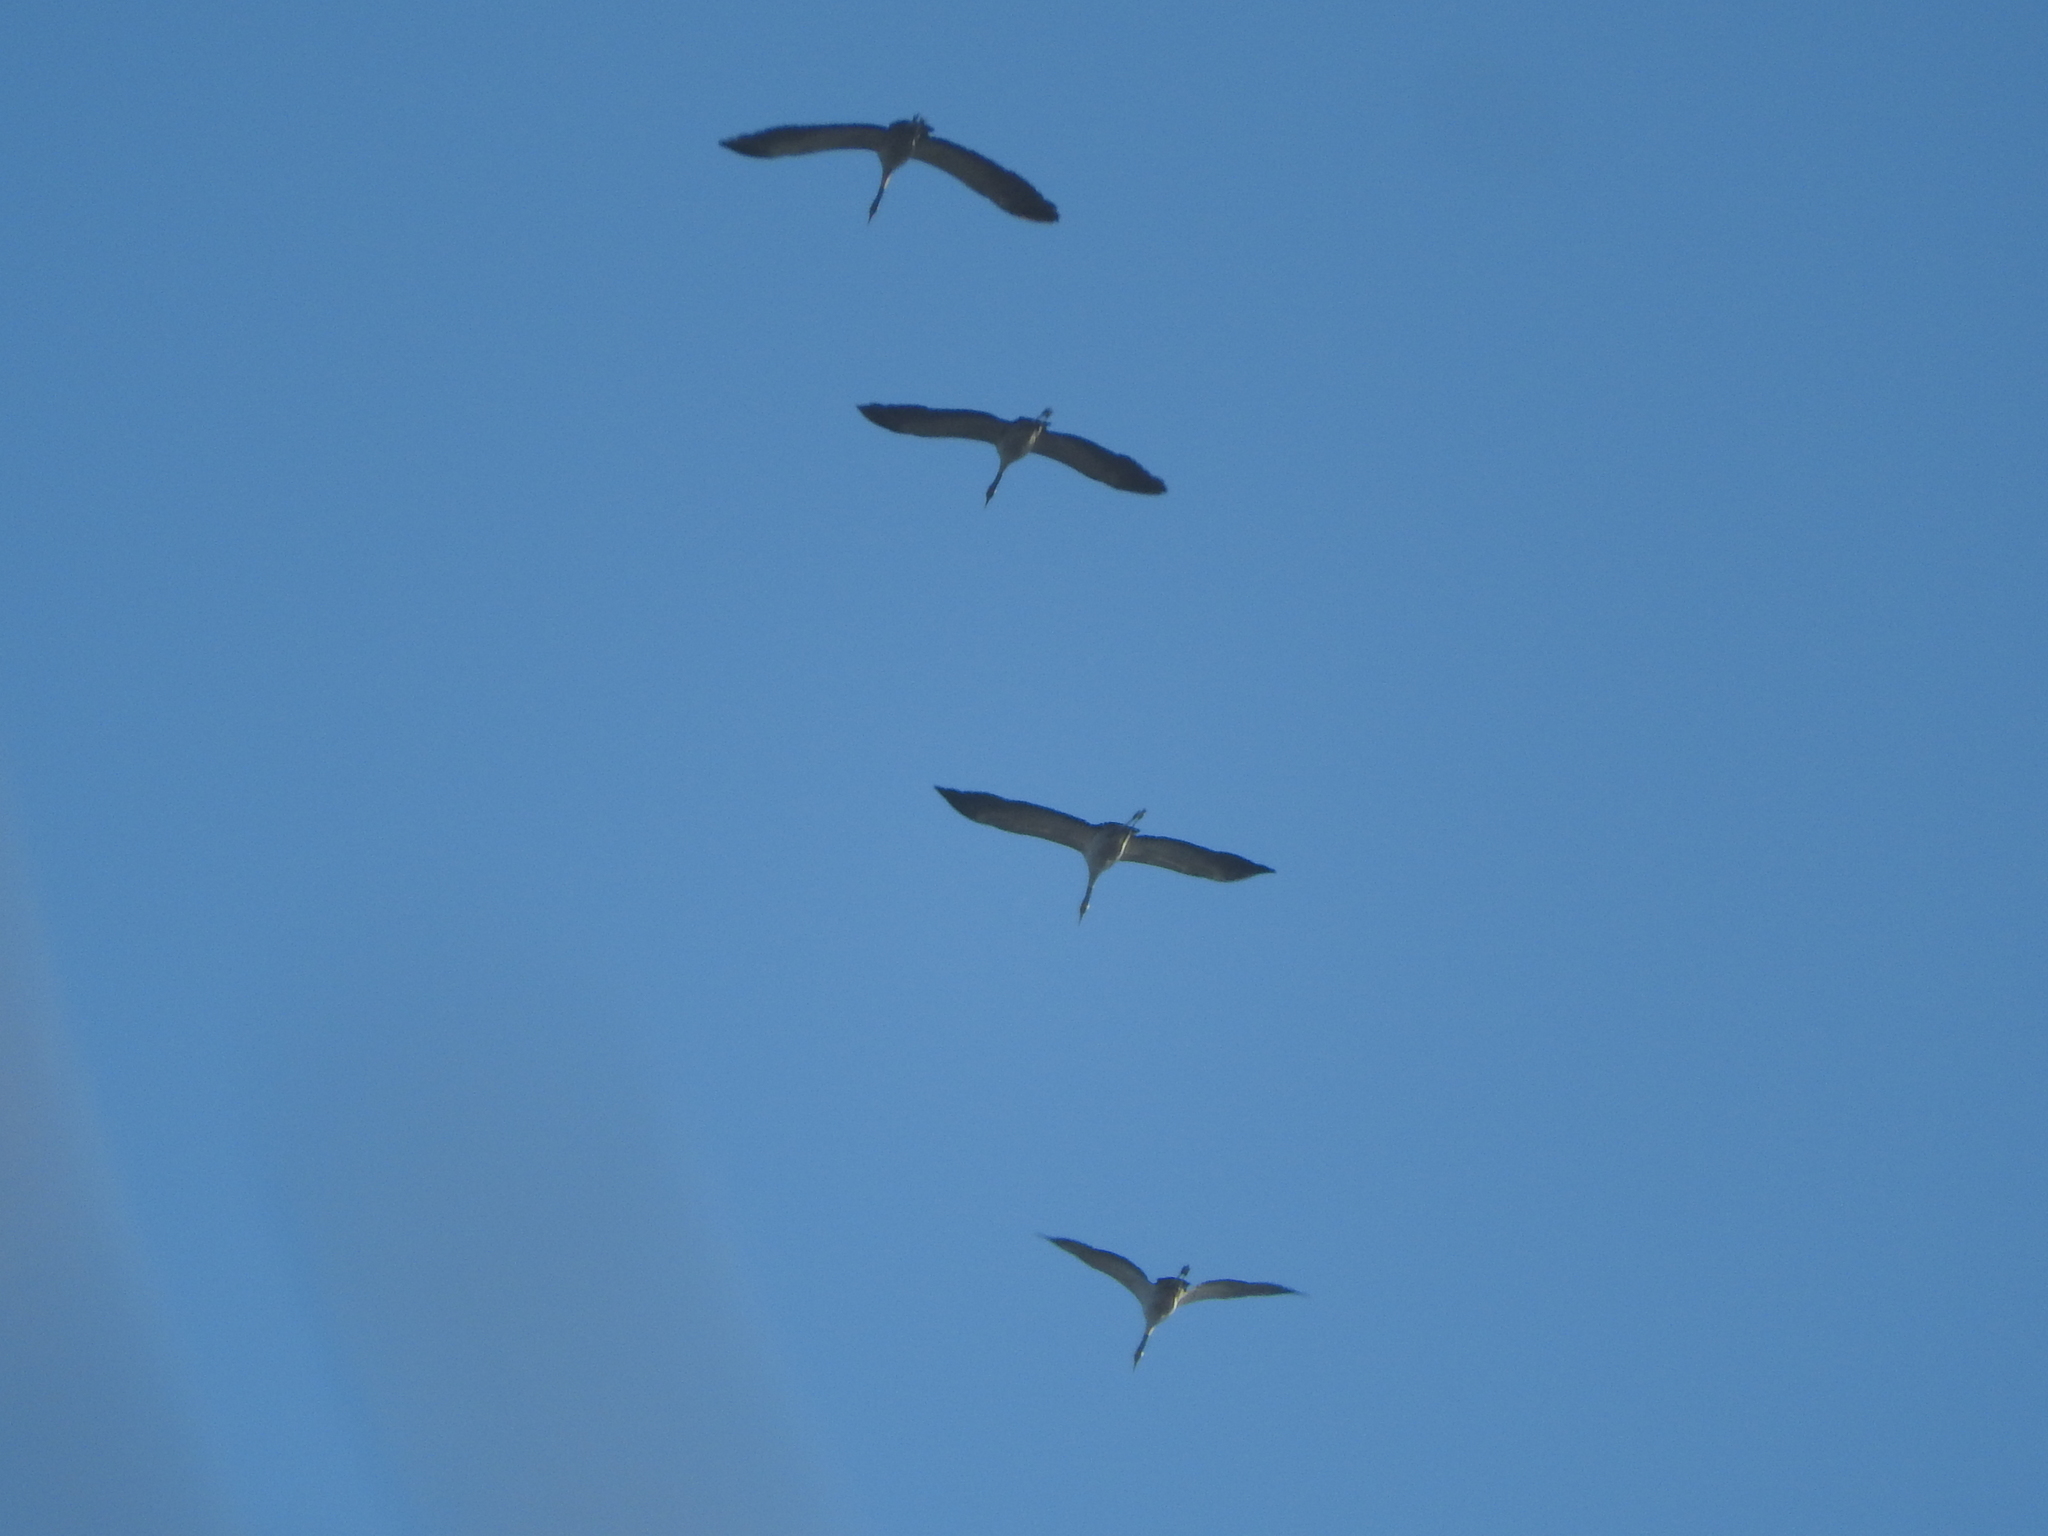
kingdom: Animalia
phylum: Chordata
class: Aves
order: Gruiformes
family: Gruidae
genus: Grus
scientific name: Grus grus
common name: Common crane
